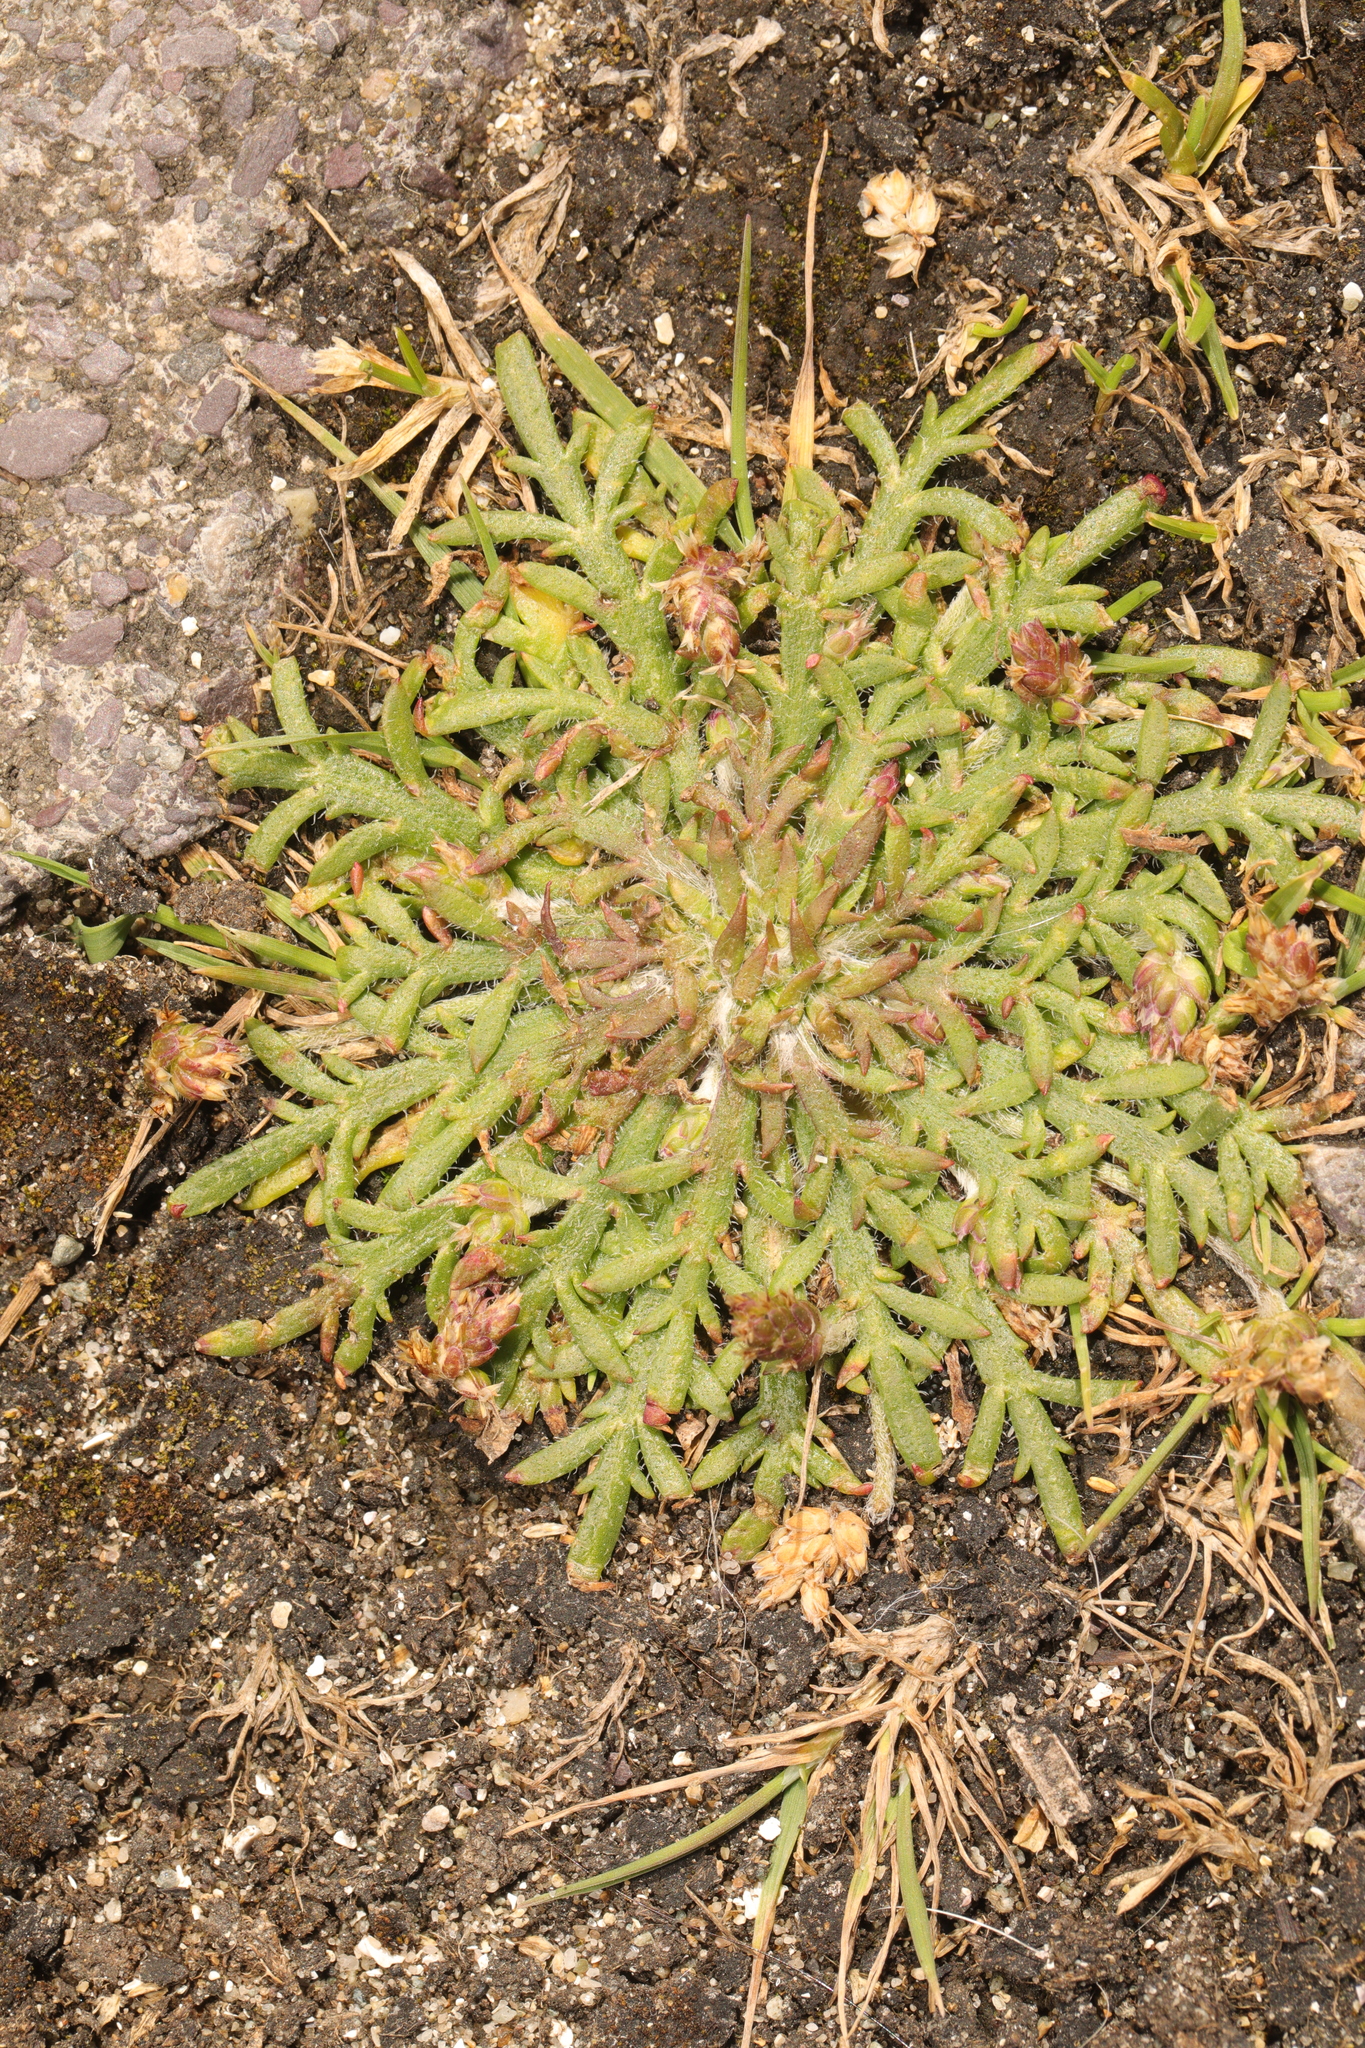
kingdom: Plantae
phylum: Tracheophyta
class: Magnoliopsida
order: Lamiales
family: Plantaginaceae
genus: Plantago
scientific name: Plantago coronopus
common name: Buck's-horn plantain
